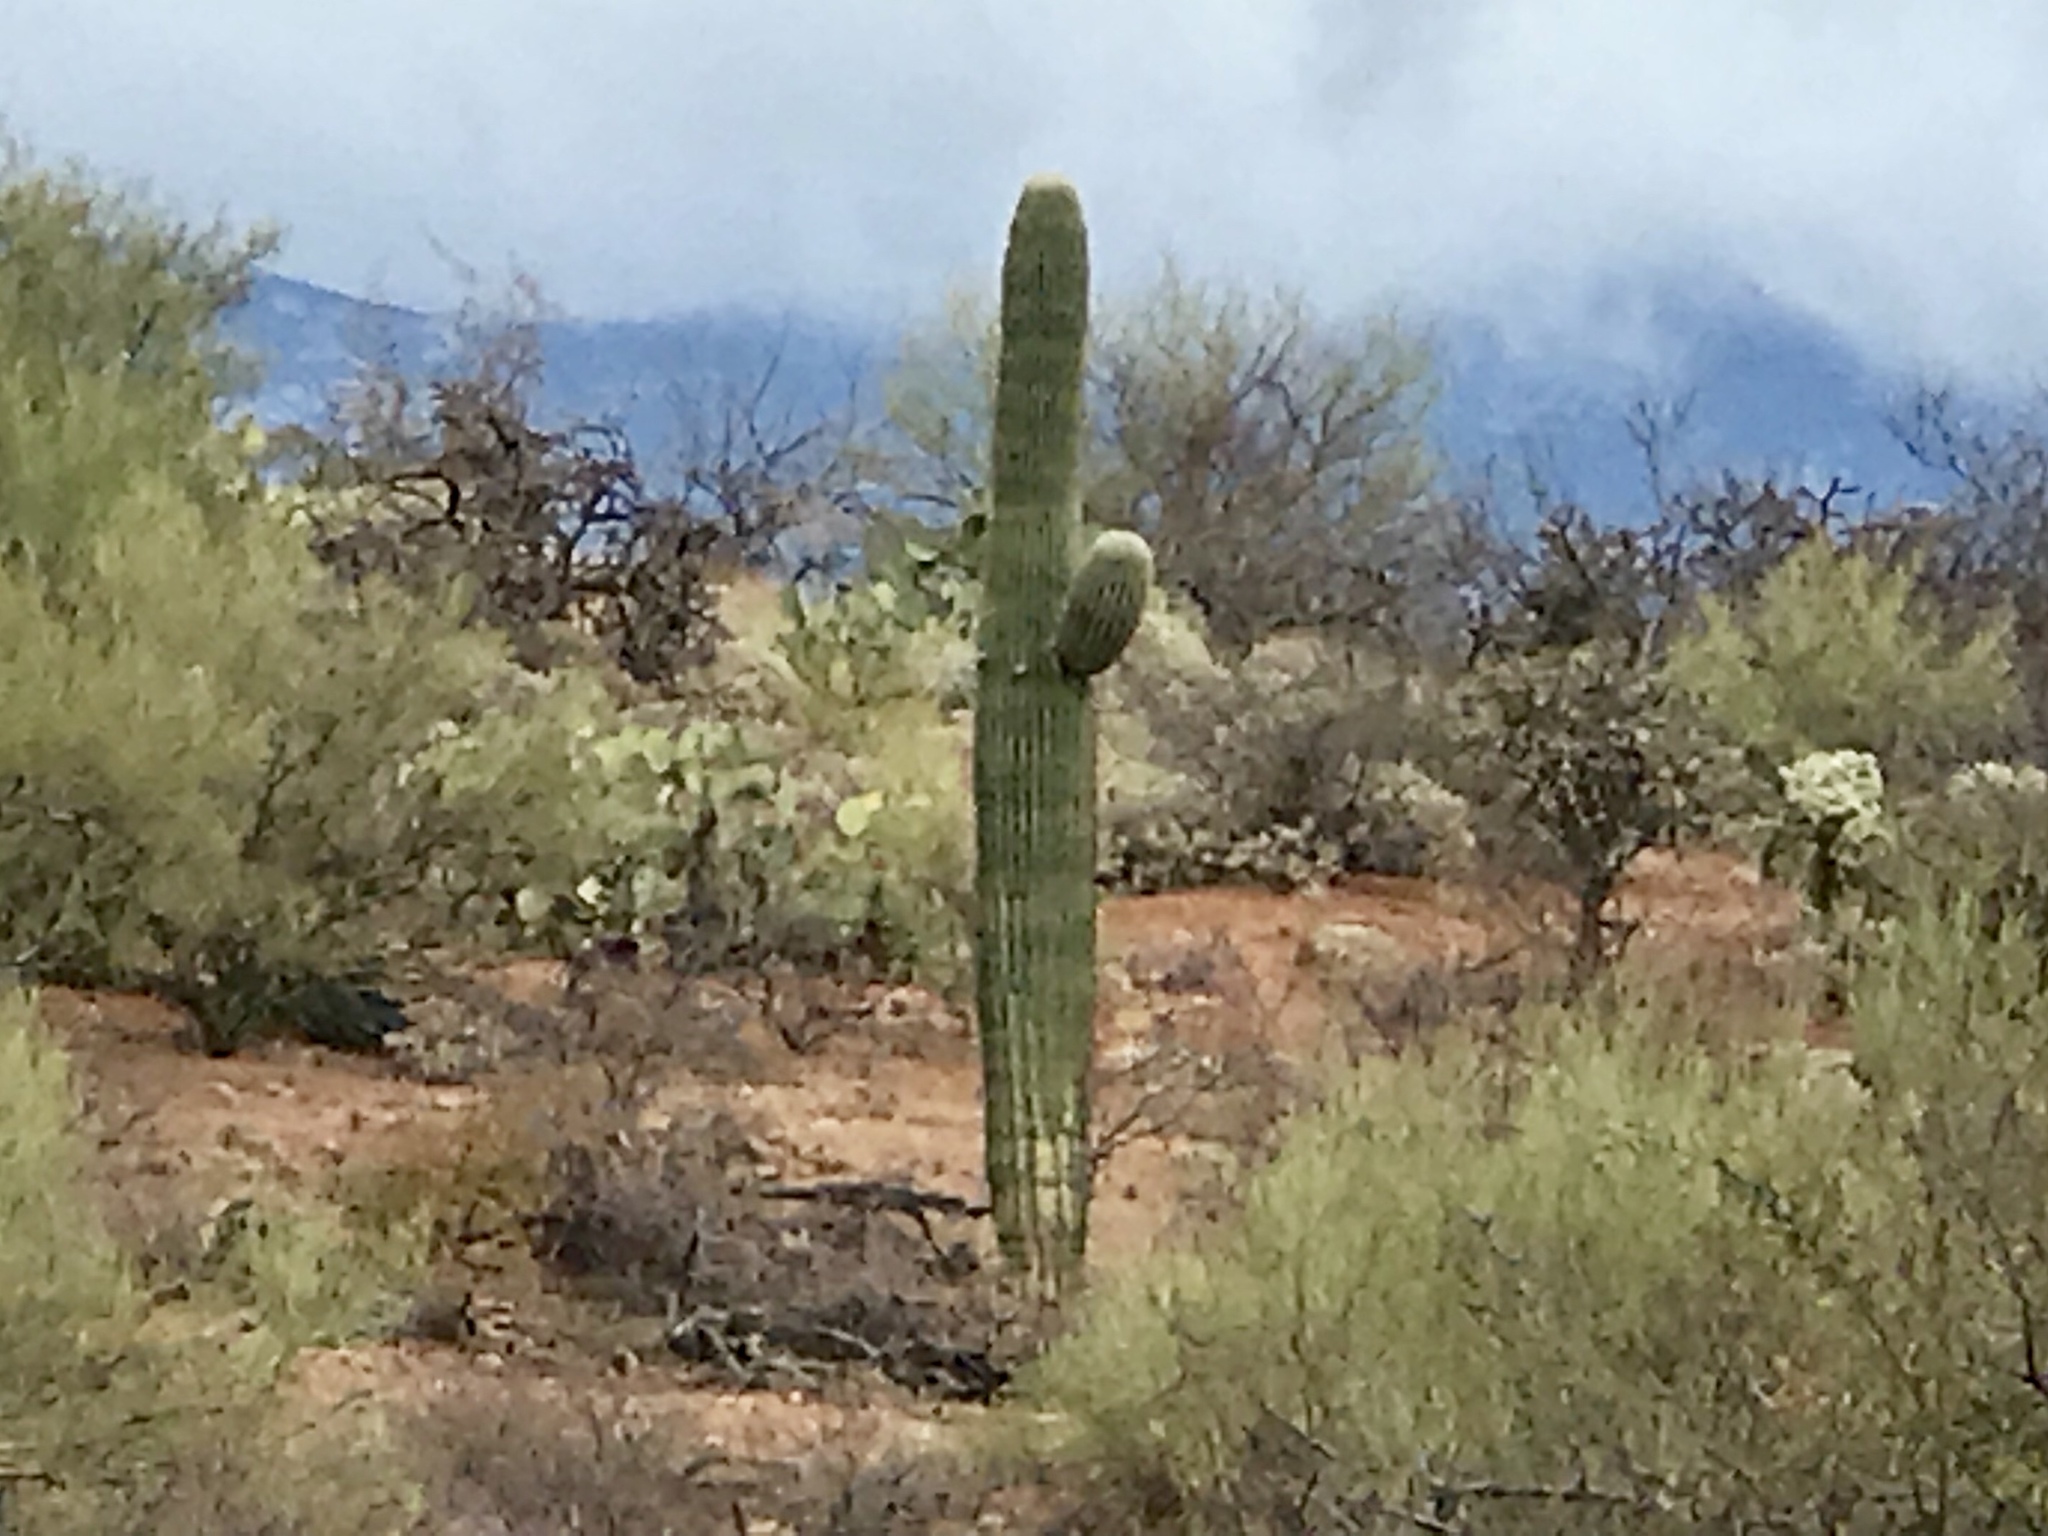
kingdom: Plantae
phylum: Tracheophyta
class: Magnoliopsida
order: Caryophyllales
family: Cactaceae
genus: Carnegiea
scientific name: Carnegiea gigantea
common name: Saguaro
